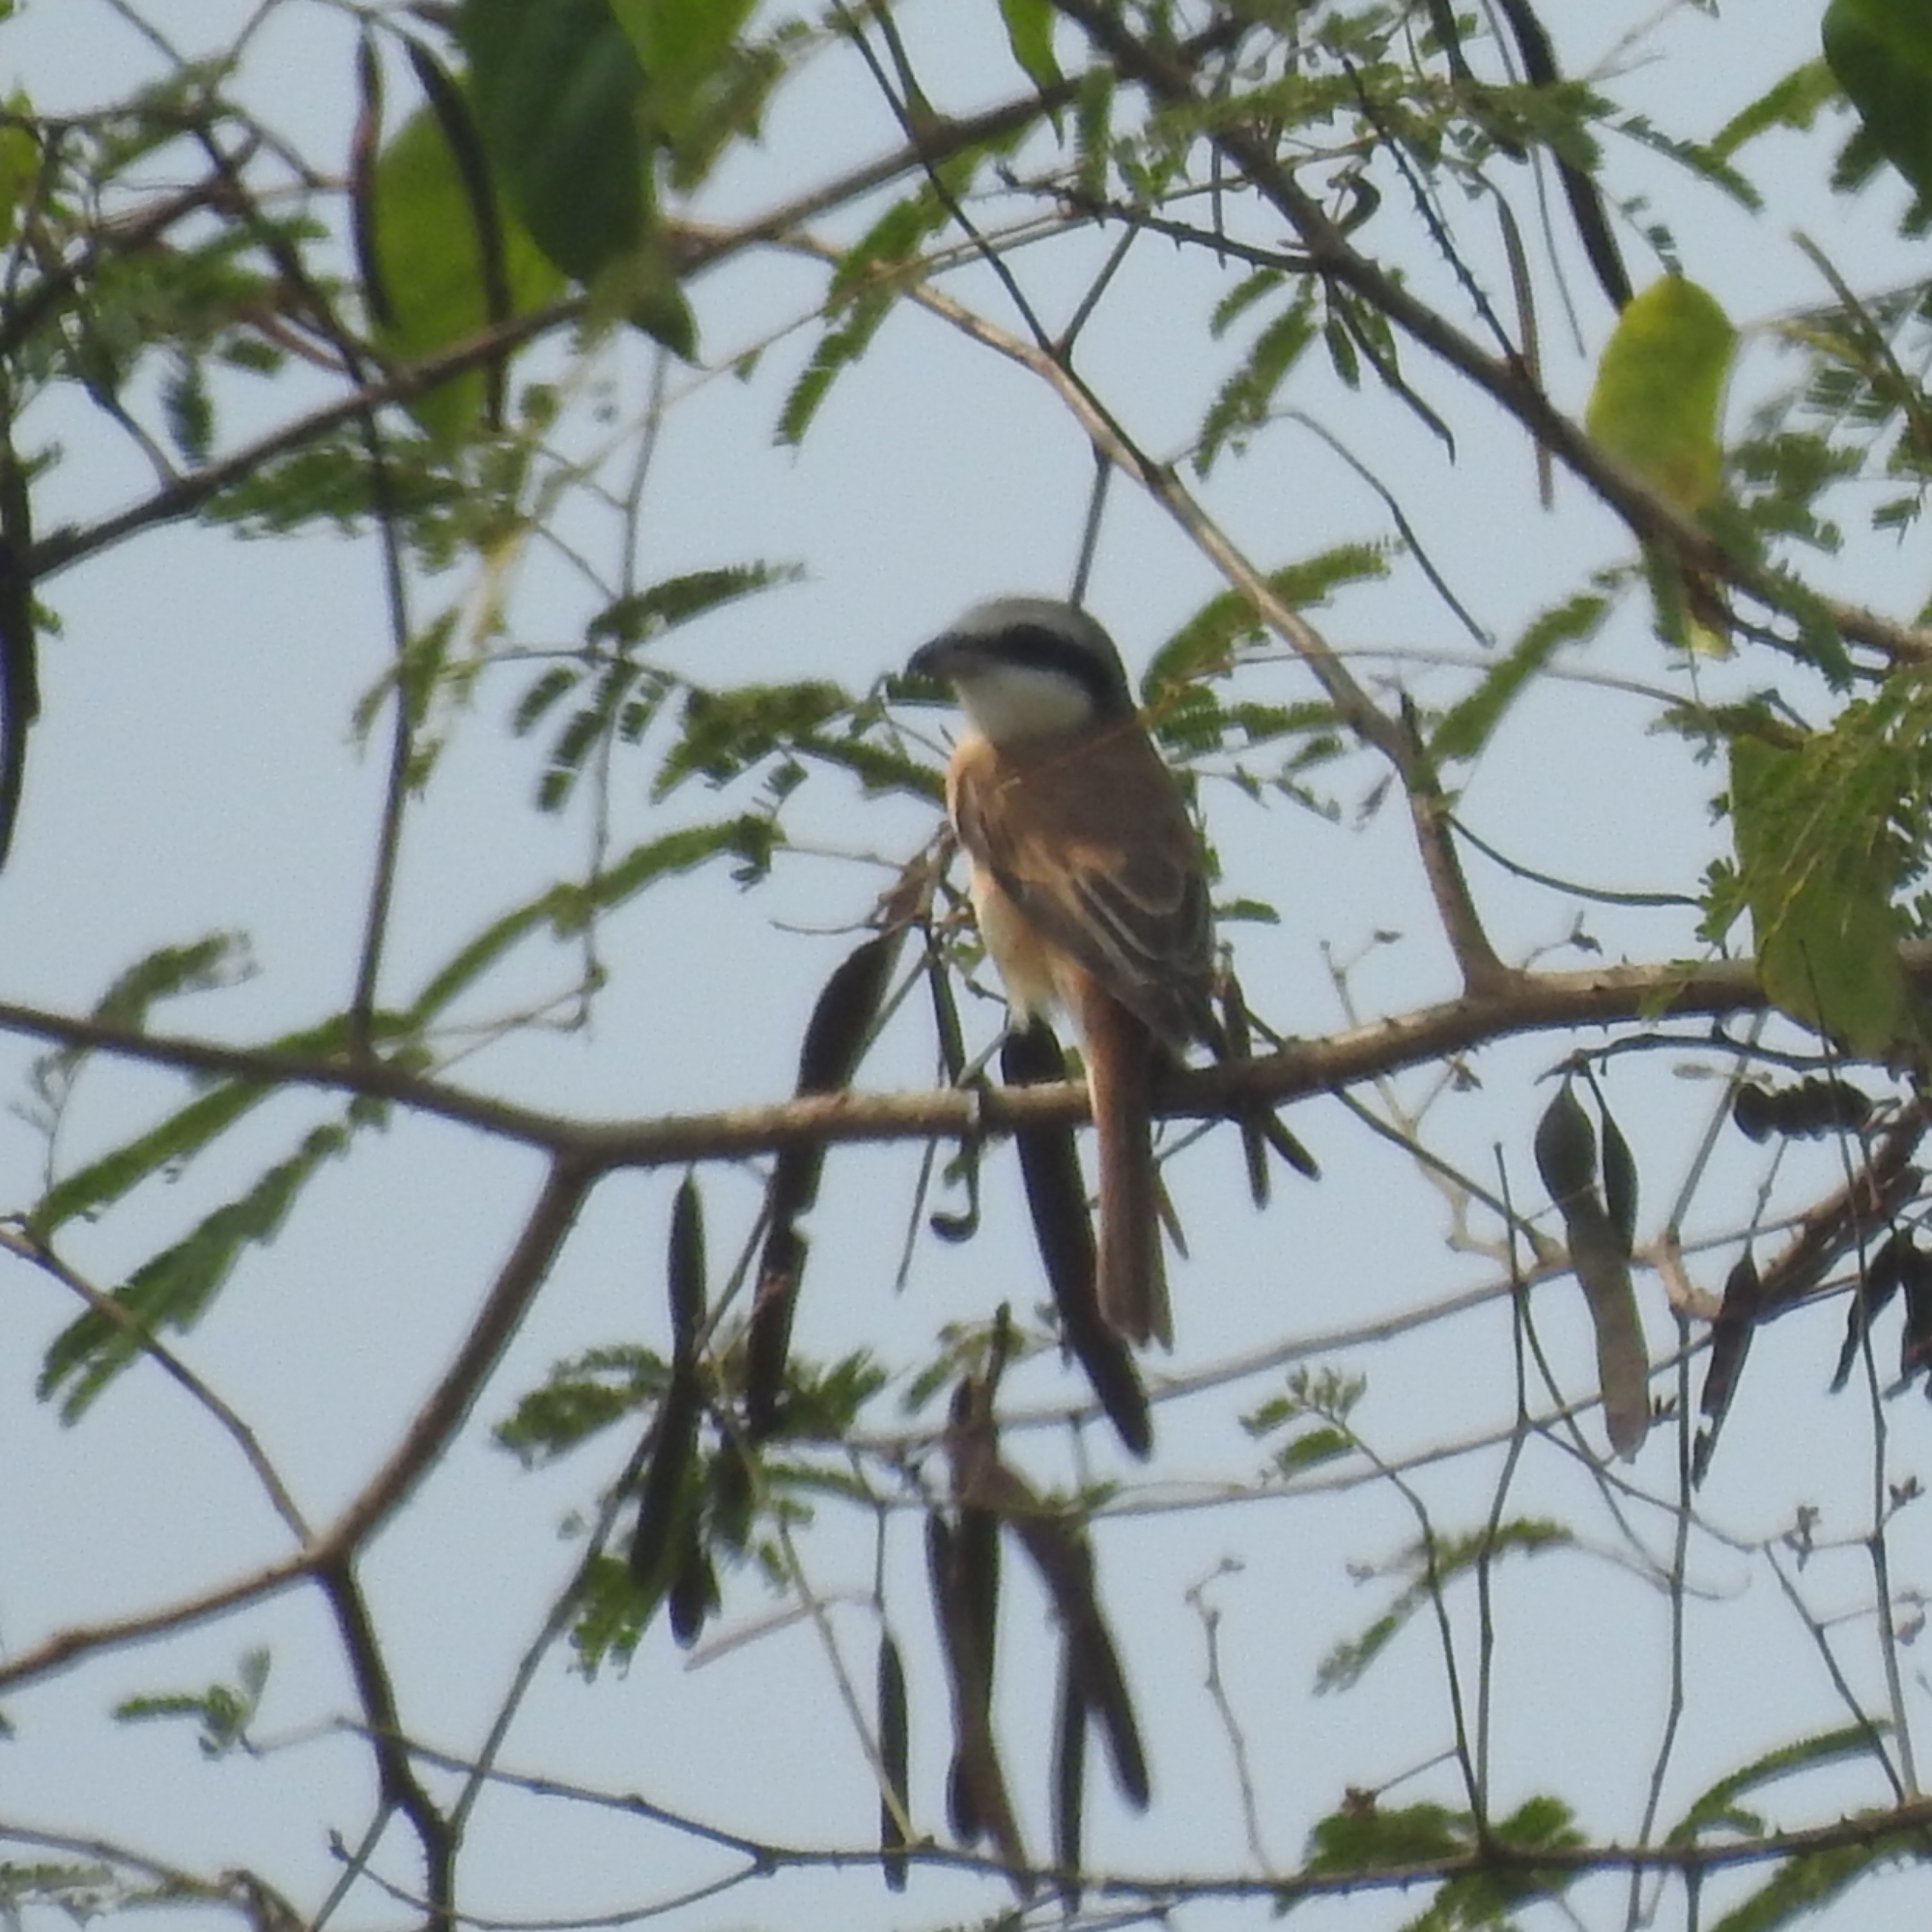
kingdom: Animalia
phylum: Chordata
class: Aves
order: Passeriformes
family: Laniidae
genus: Lanius
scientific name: Lanius cristatus
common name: Brown shrike
